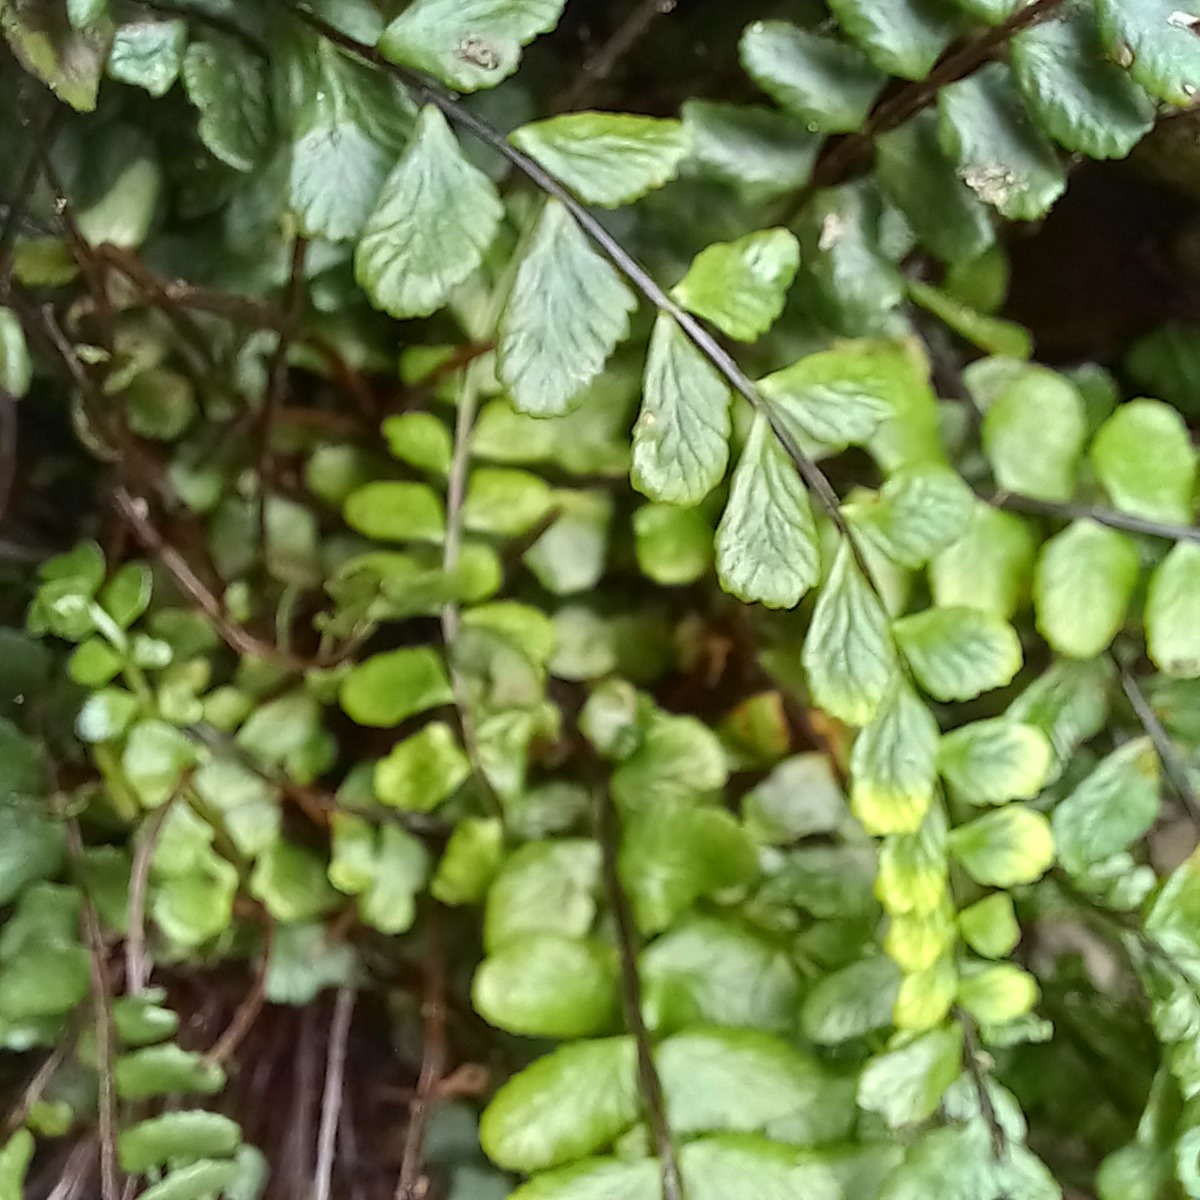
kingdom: Plantae
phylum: Tracheophyta
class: Polypodiopsida
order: Polypodiales
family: Aspleniaceae
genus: Asplenium
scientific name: Asplenium trichomanes
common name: Maidenhair spleenwort
